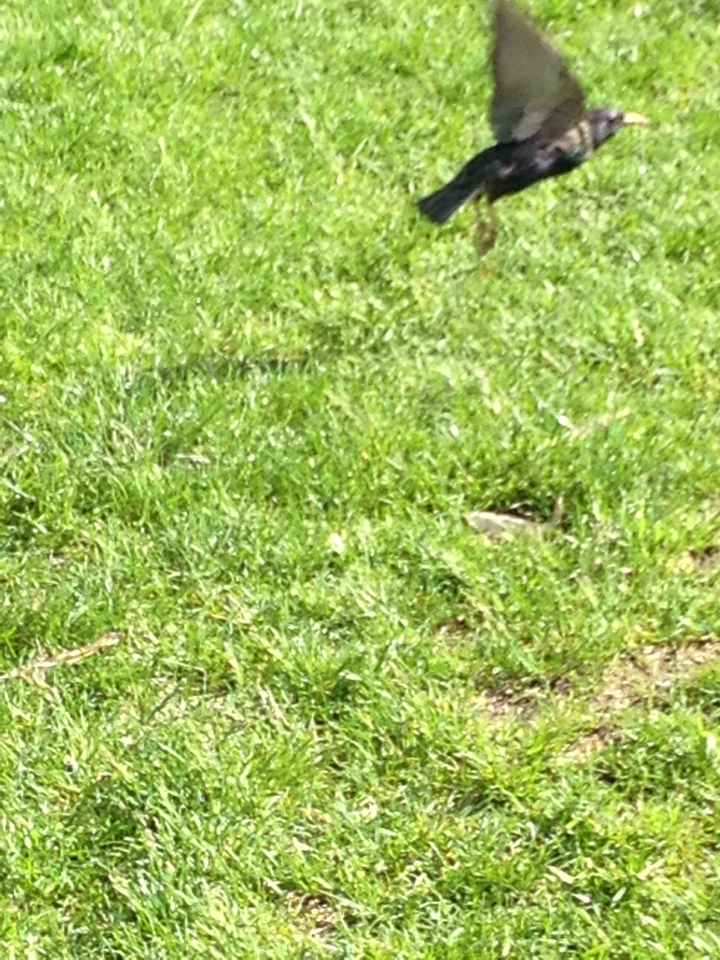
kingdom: Animalia
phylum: Chordata
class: Aves
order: Passeriformes
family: Sturnidae
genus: Sturnus
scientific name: Sturnus vulgaris
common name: Common starling
